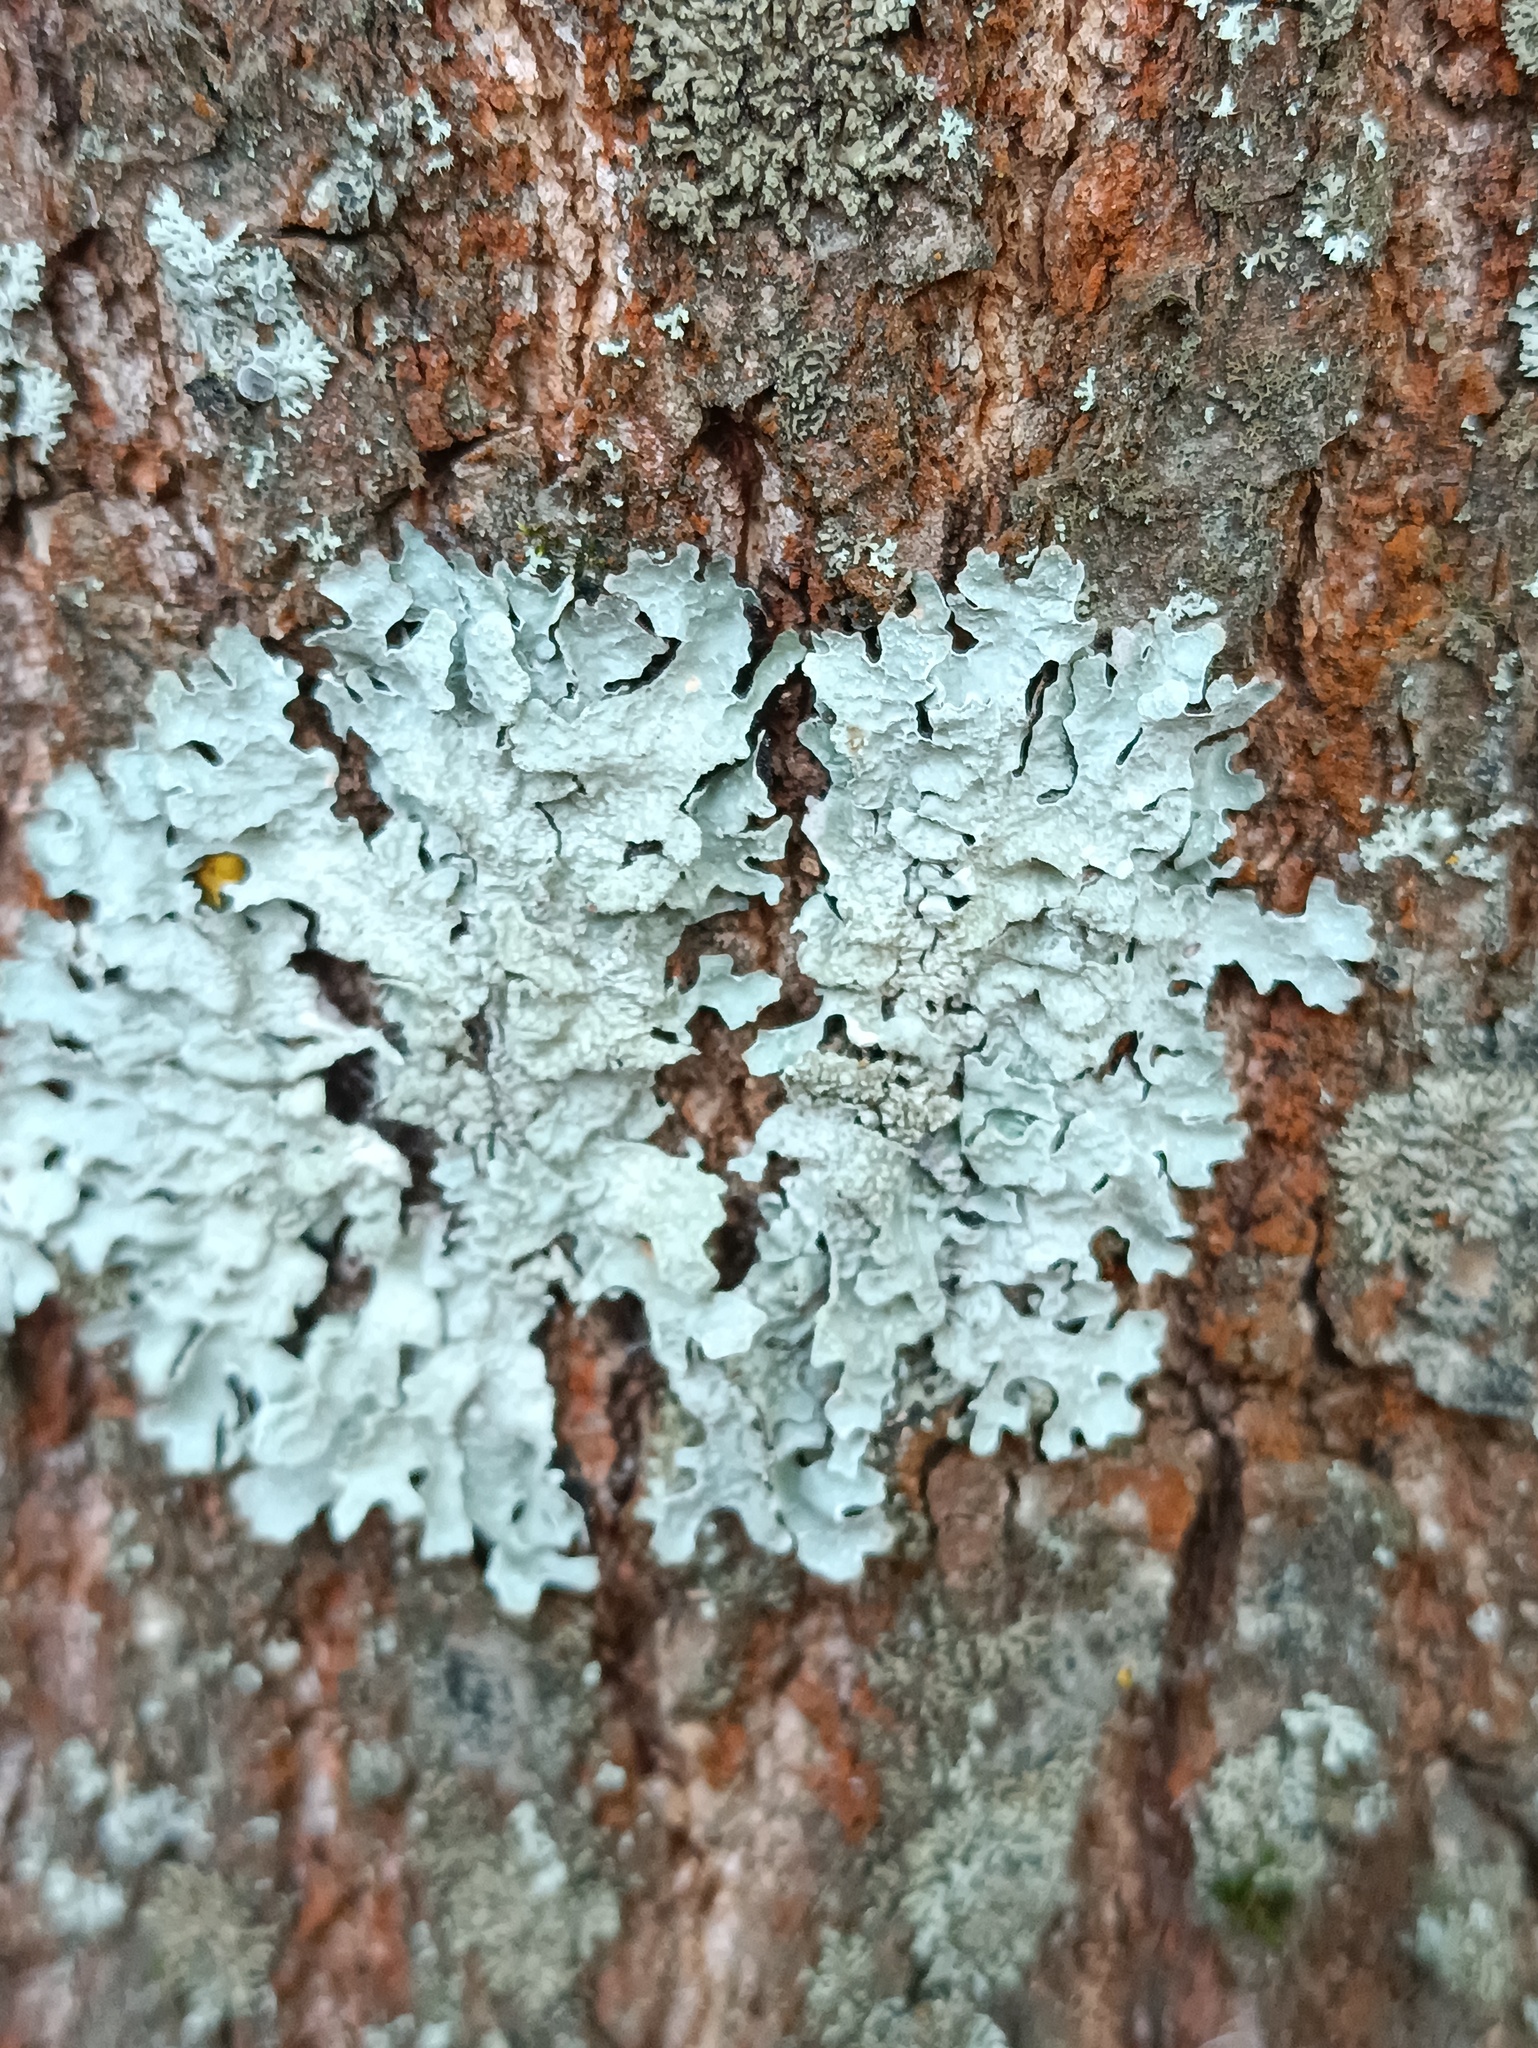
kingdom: Fungi
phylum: Ascomycota
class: Lecanoromycetes
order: Lecanorales
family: Parmeliaceae
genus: Parmelia
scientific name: Parmelia sulcata
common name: Netted shield lichen
